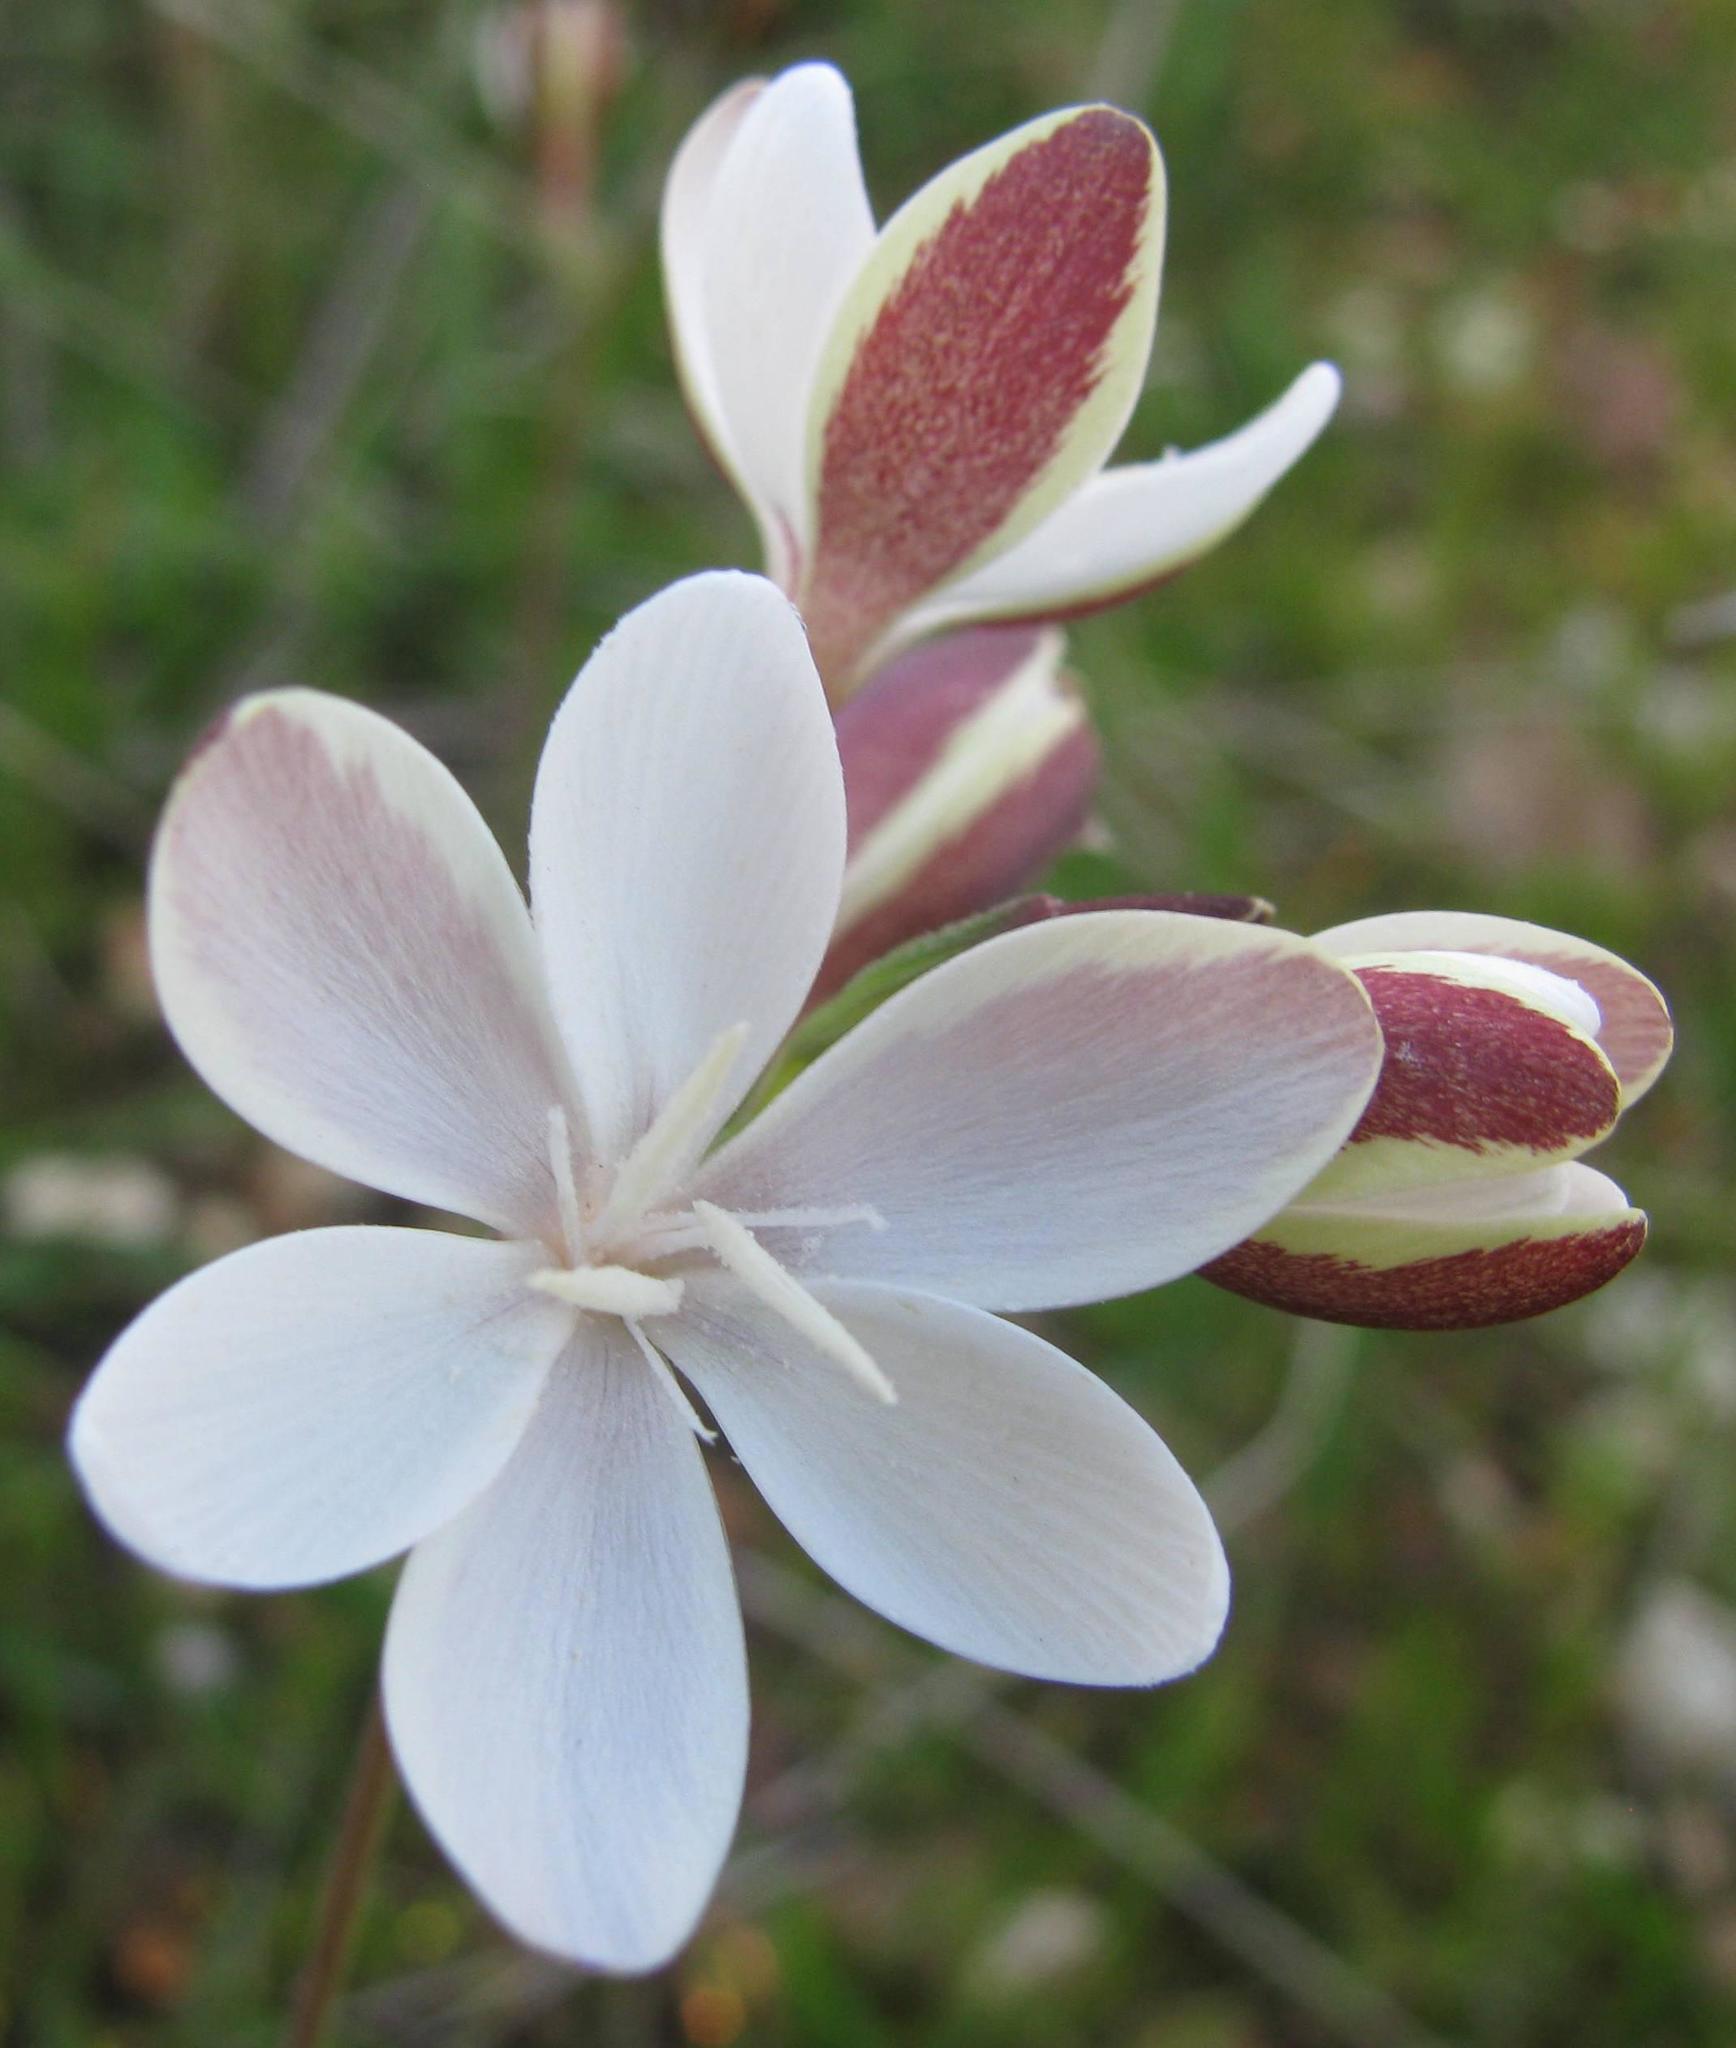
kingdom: Plantae
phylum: Tracheophyta
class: Liliopsida
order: Asparagales
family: Iridaceae
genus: Hesperantha
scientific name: Hesperantha falcata
